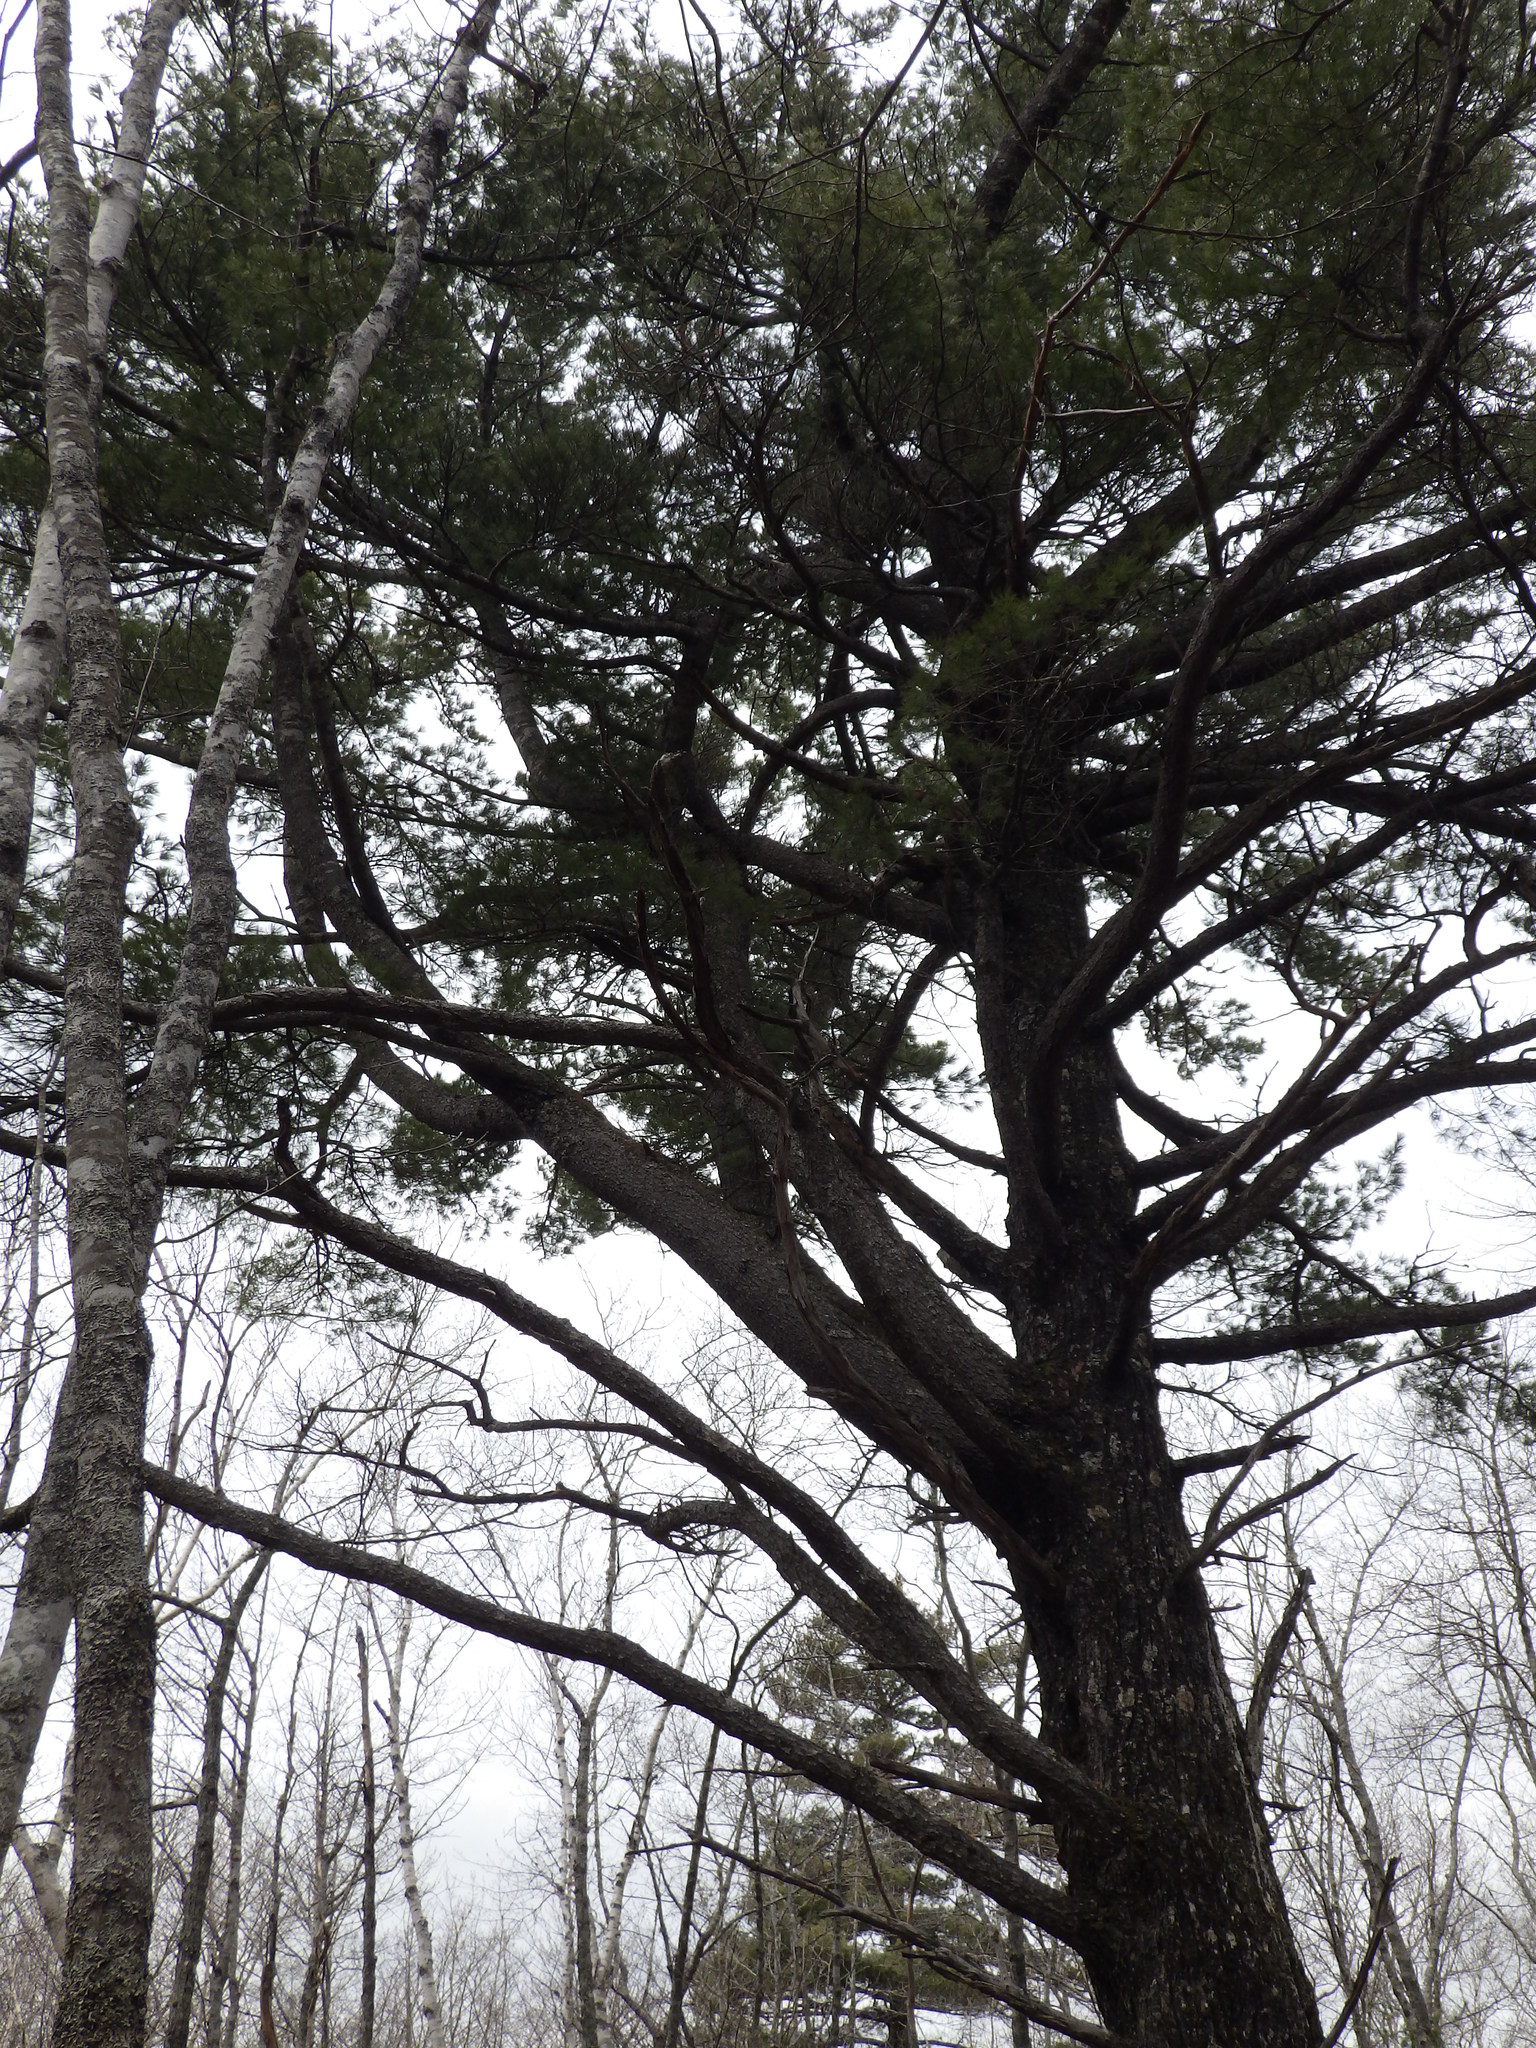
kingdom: Plantae
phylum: Tracheophyta
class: Pinopsida
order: Pinales
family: Pinaceae
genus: Pinus
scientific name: Pinus strobus
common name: Weymouth pine
